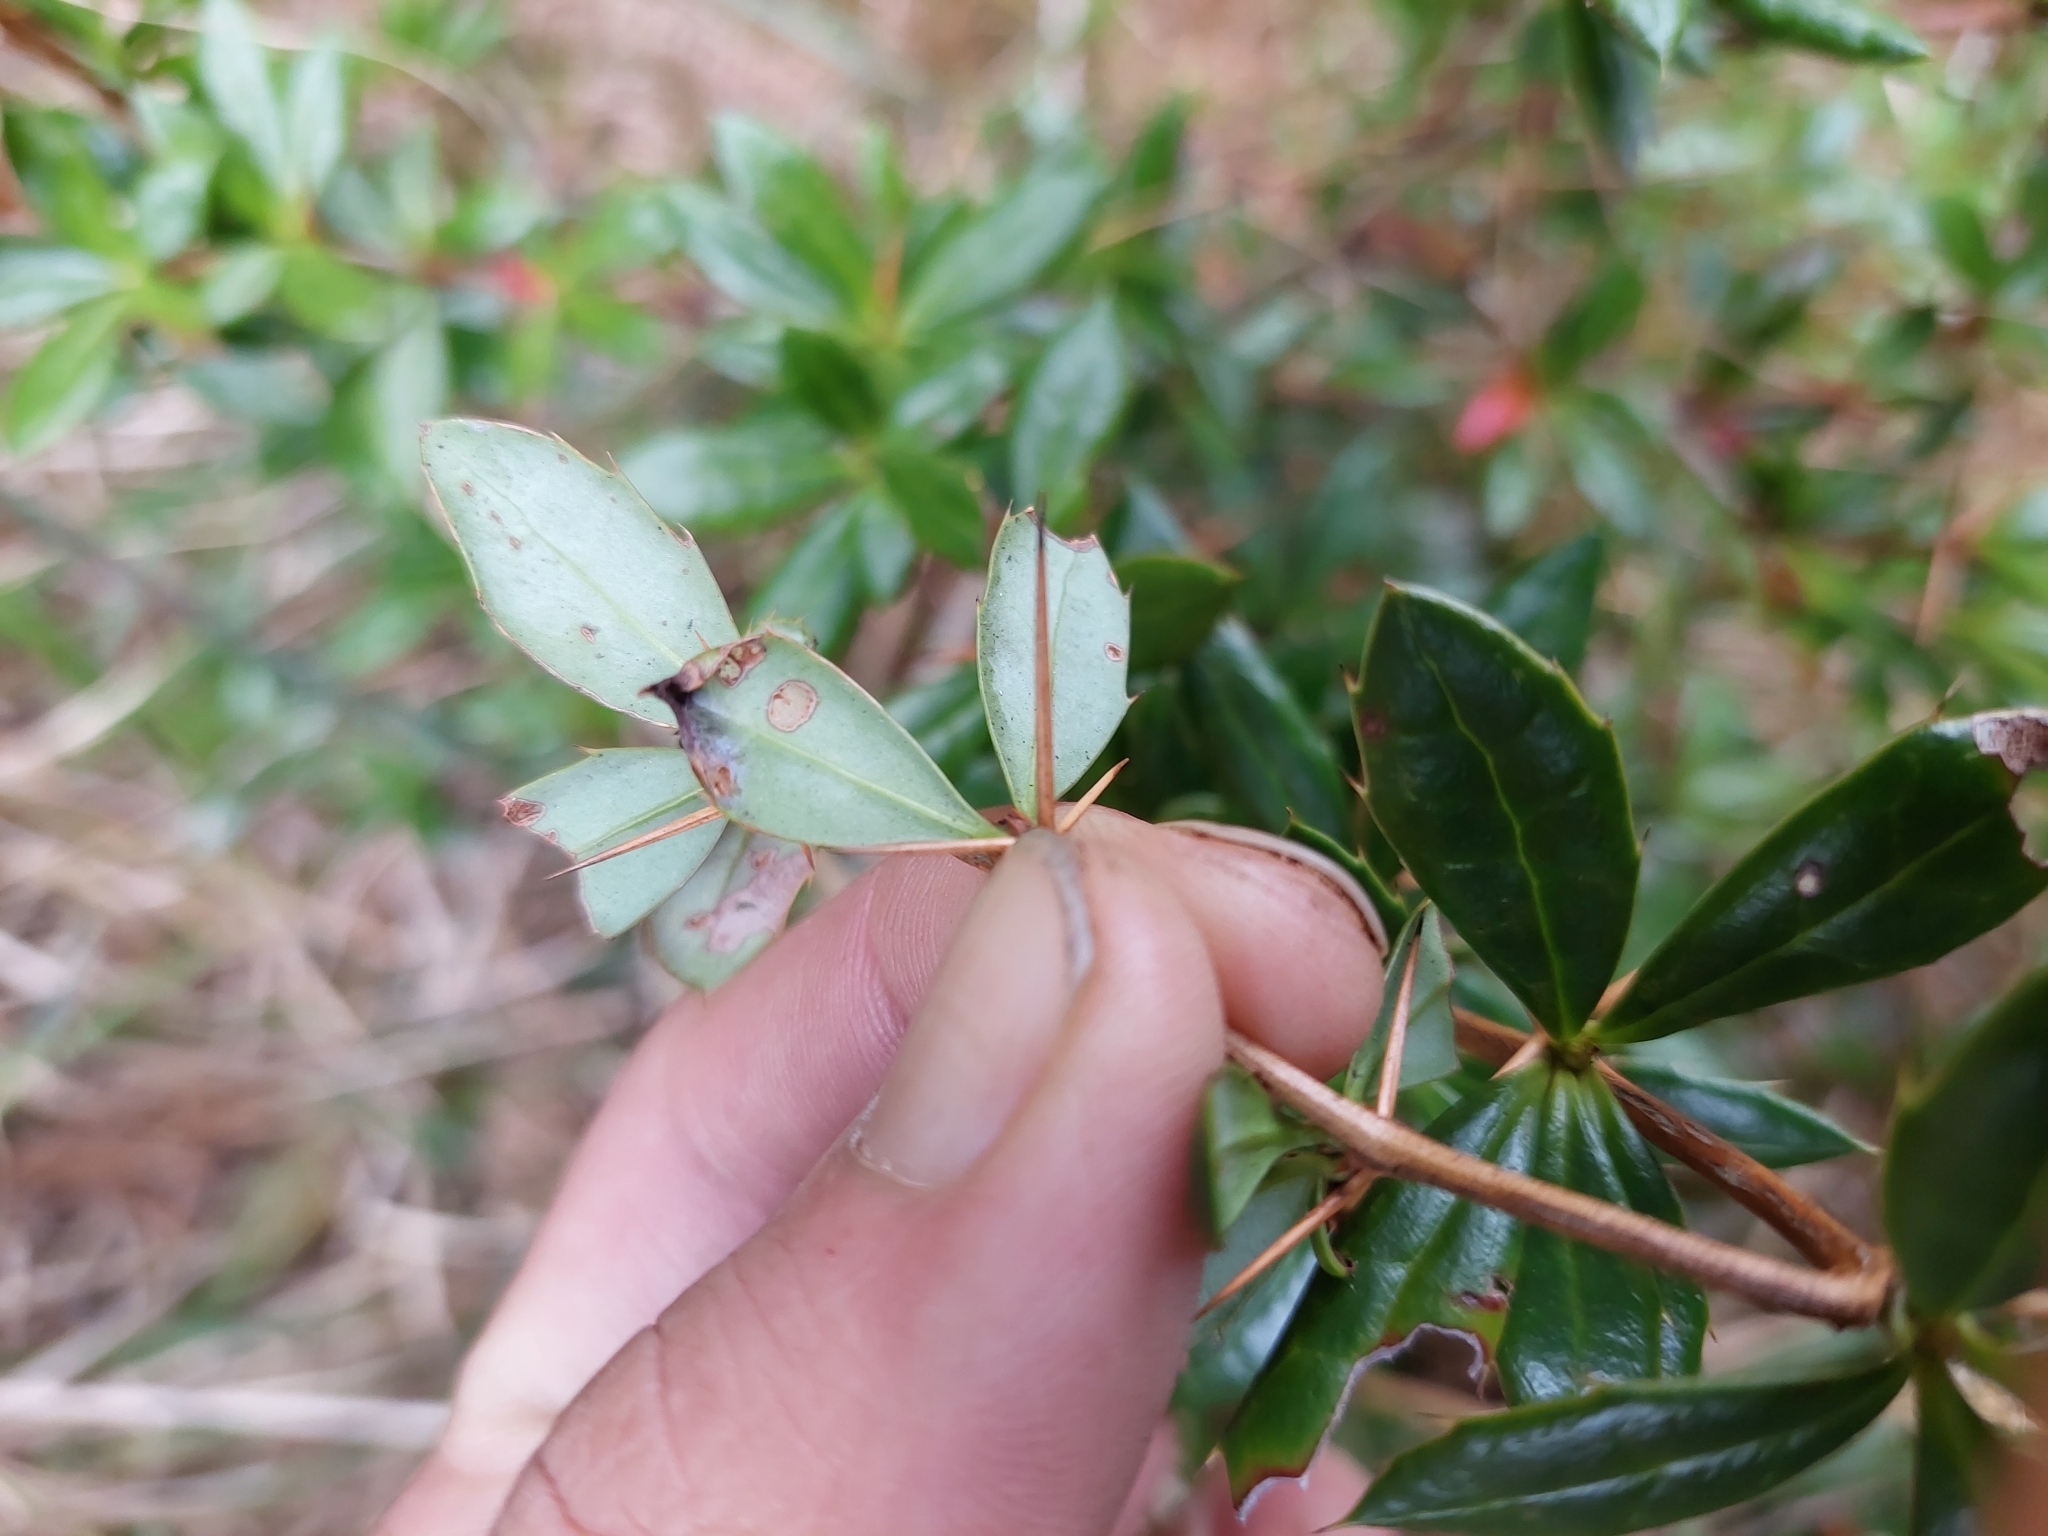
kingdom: Plantae
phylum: Tracheophyta
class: Magnoliopsida
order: Ranunculales
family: Berberidaceae
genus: Berberis
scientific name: Berberis kawakamii
